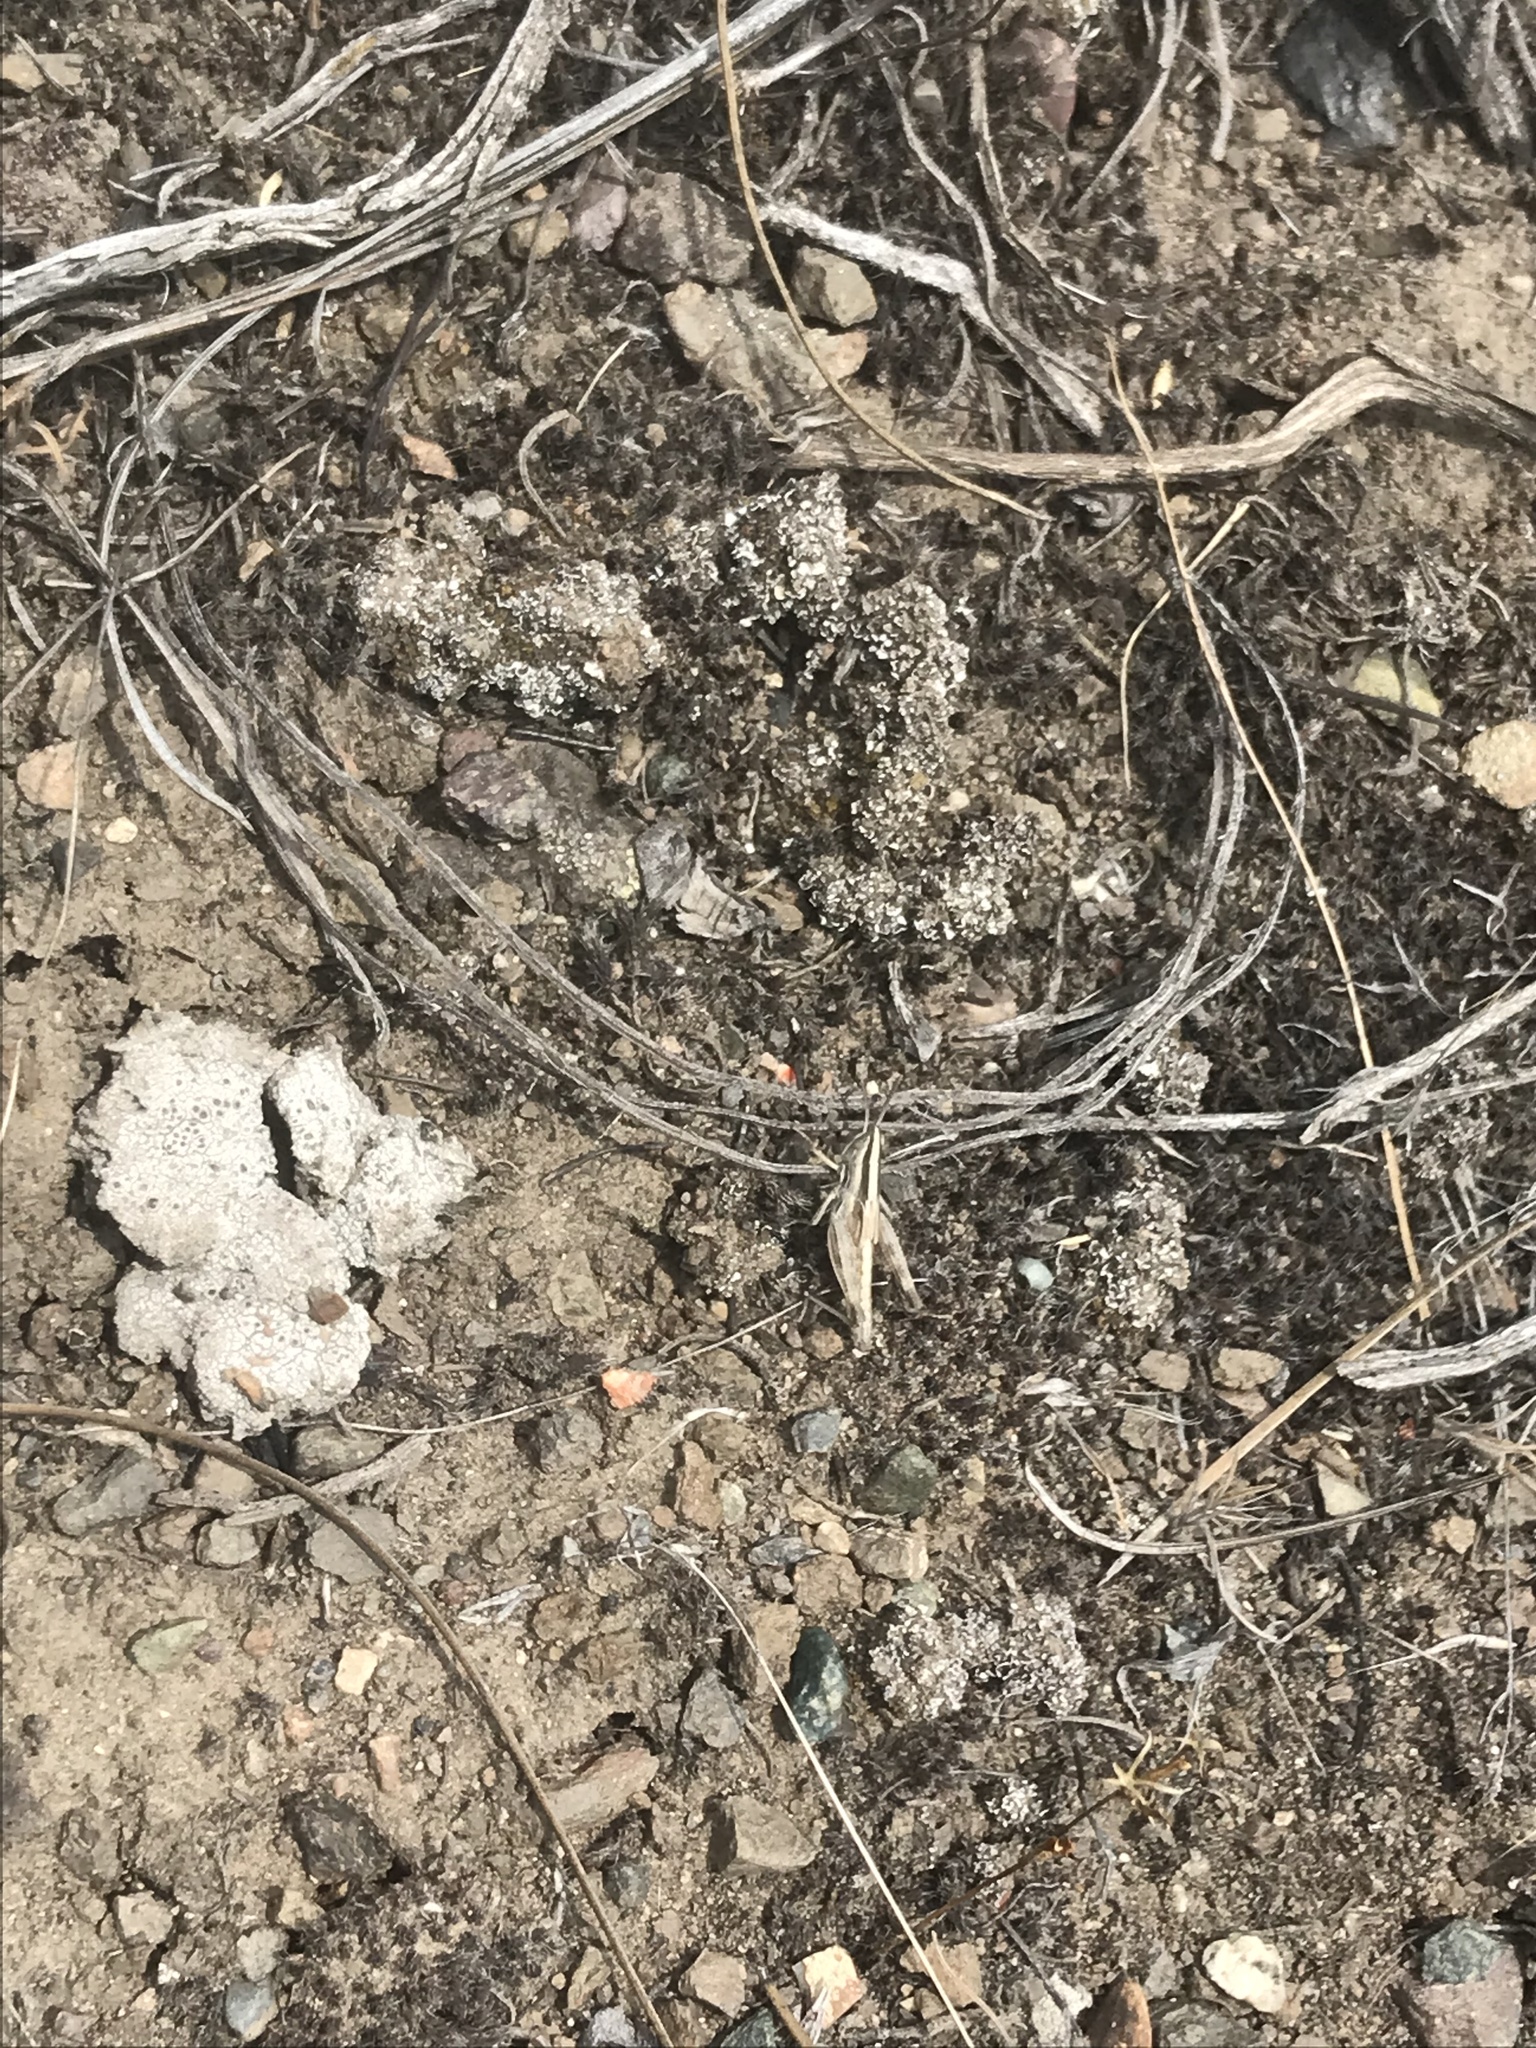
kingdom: Animalia
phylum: Arthropoda
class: Insecta
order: Orthoptera
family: Acrididae
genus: Amphitornus
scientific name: Amphitornus coloradus
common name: Striped grasshopper
